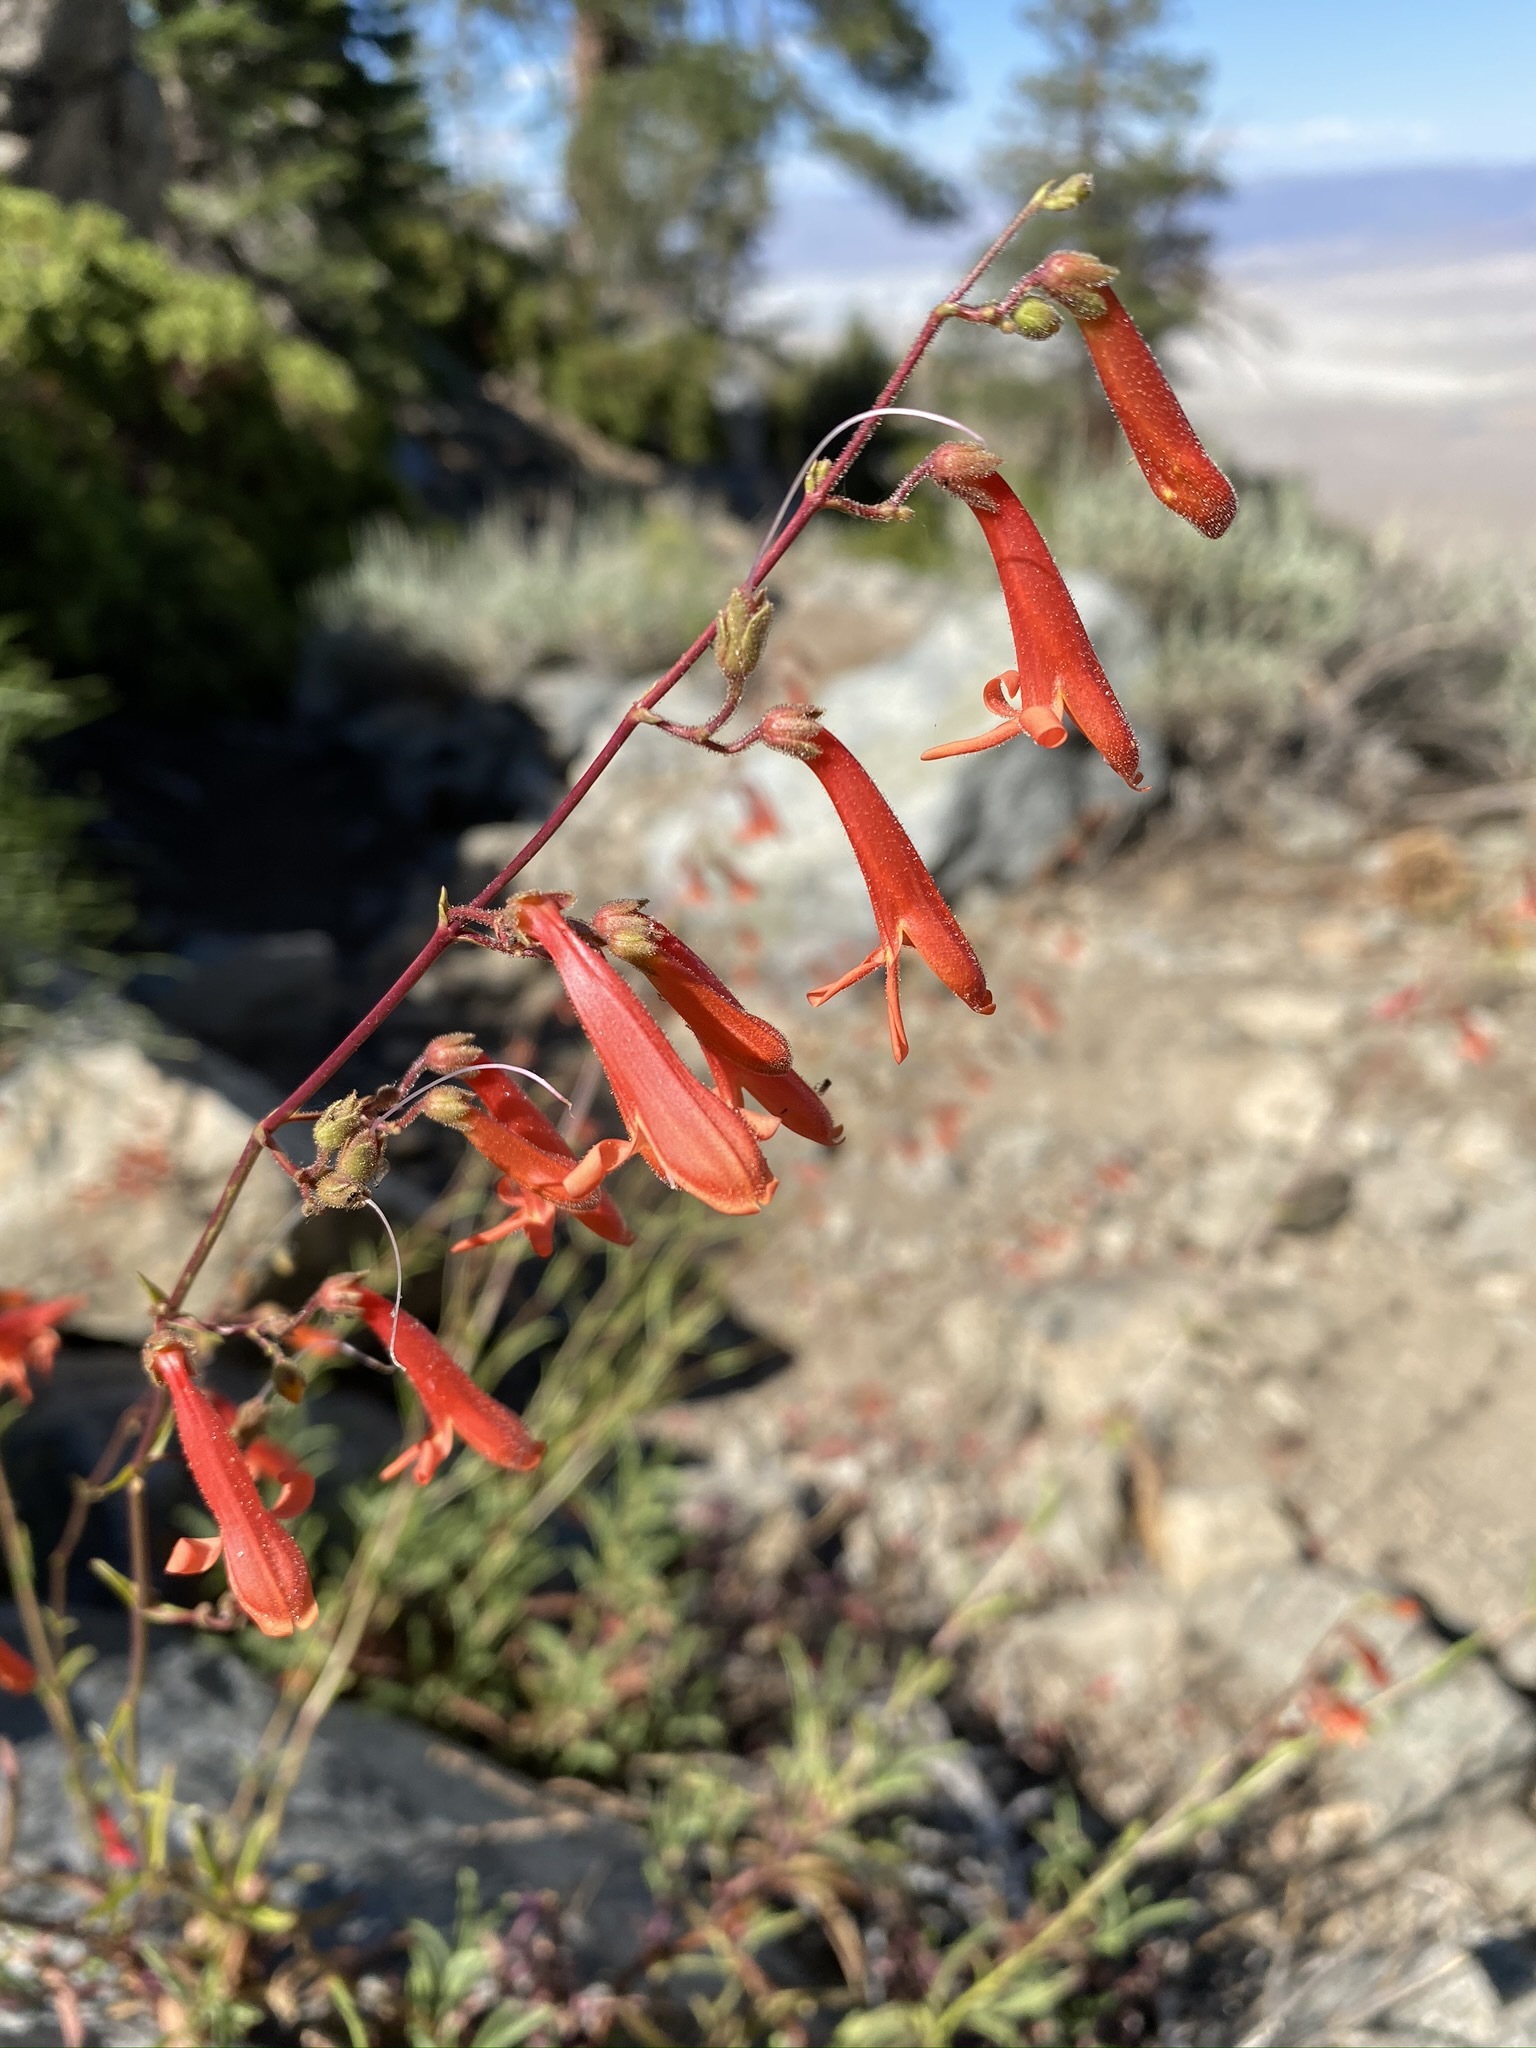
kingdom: Plantae
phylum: Tracheophyta
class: Magnoliopsida
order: Lamiales
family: Plantaginaceae
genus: Penstemon
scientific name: Penstemon rostriflorus
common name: Bridges's penstemon
